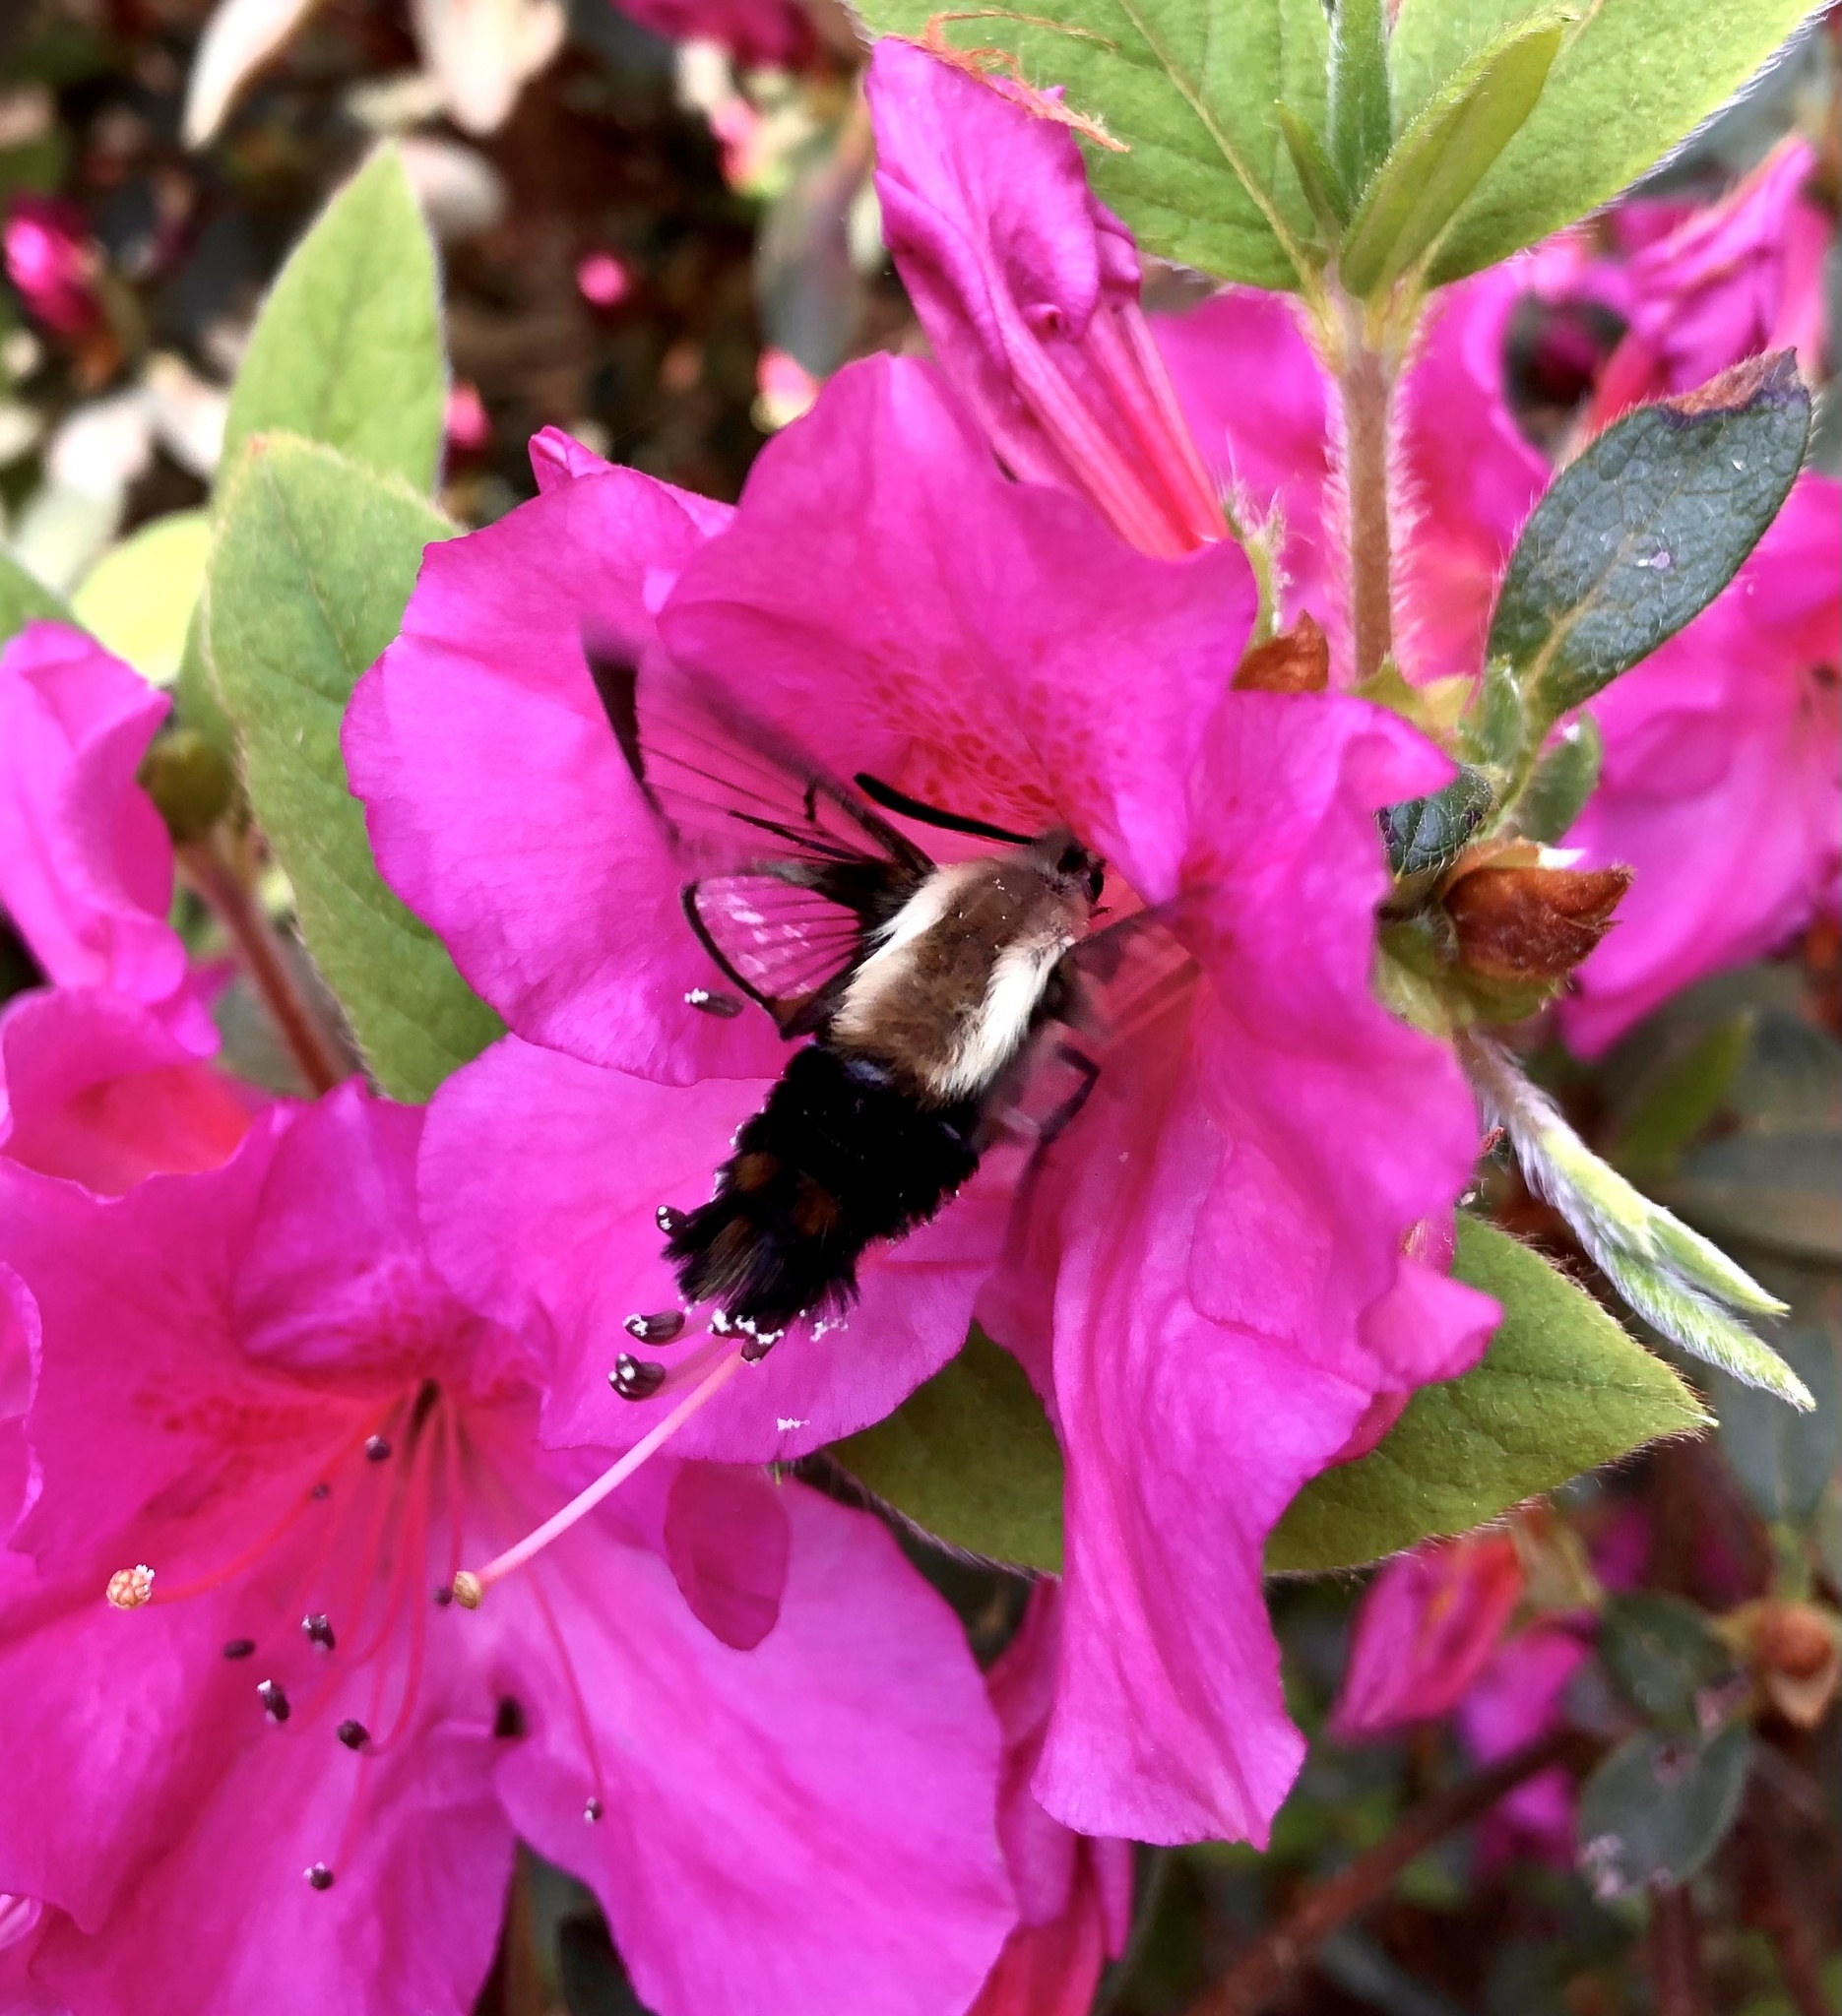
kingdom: Animalia
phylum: Arthropoda
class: Insecta
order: Lepidoptera
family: Sphingidae
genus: Hemaris
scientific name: Hemaris diffinis
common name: Bumblebee moth
